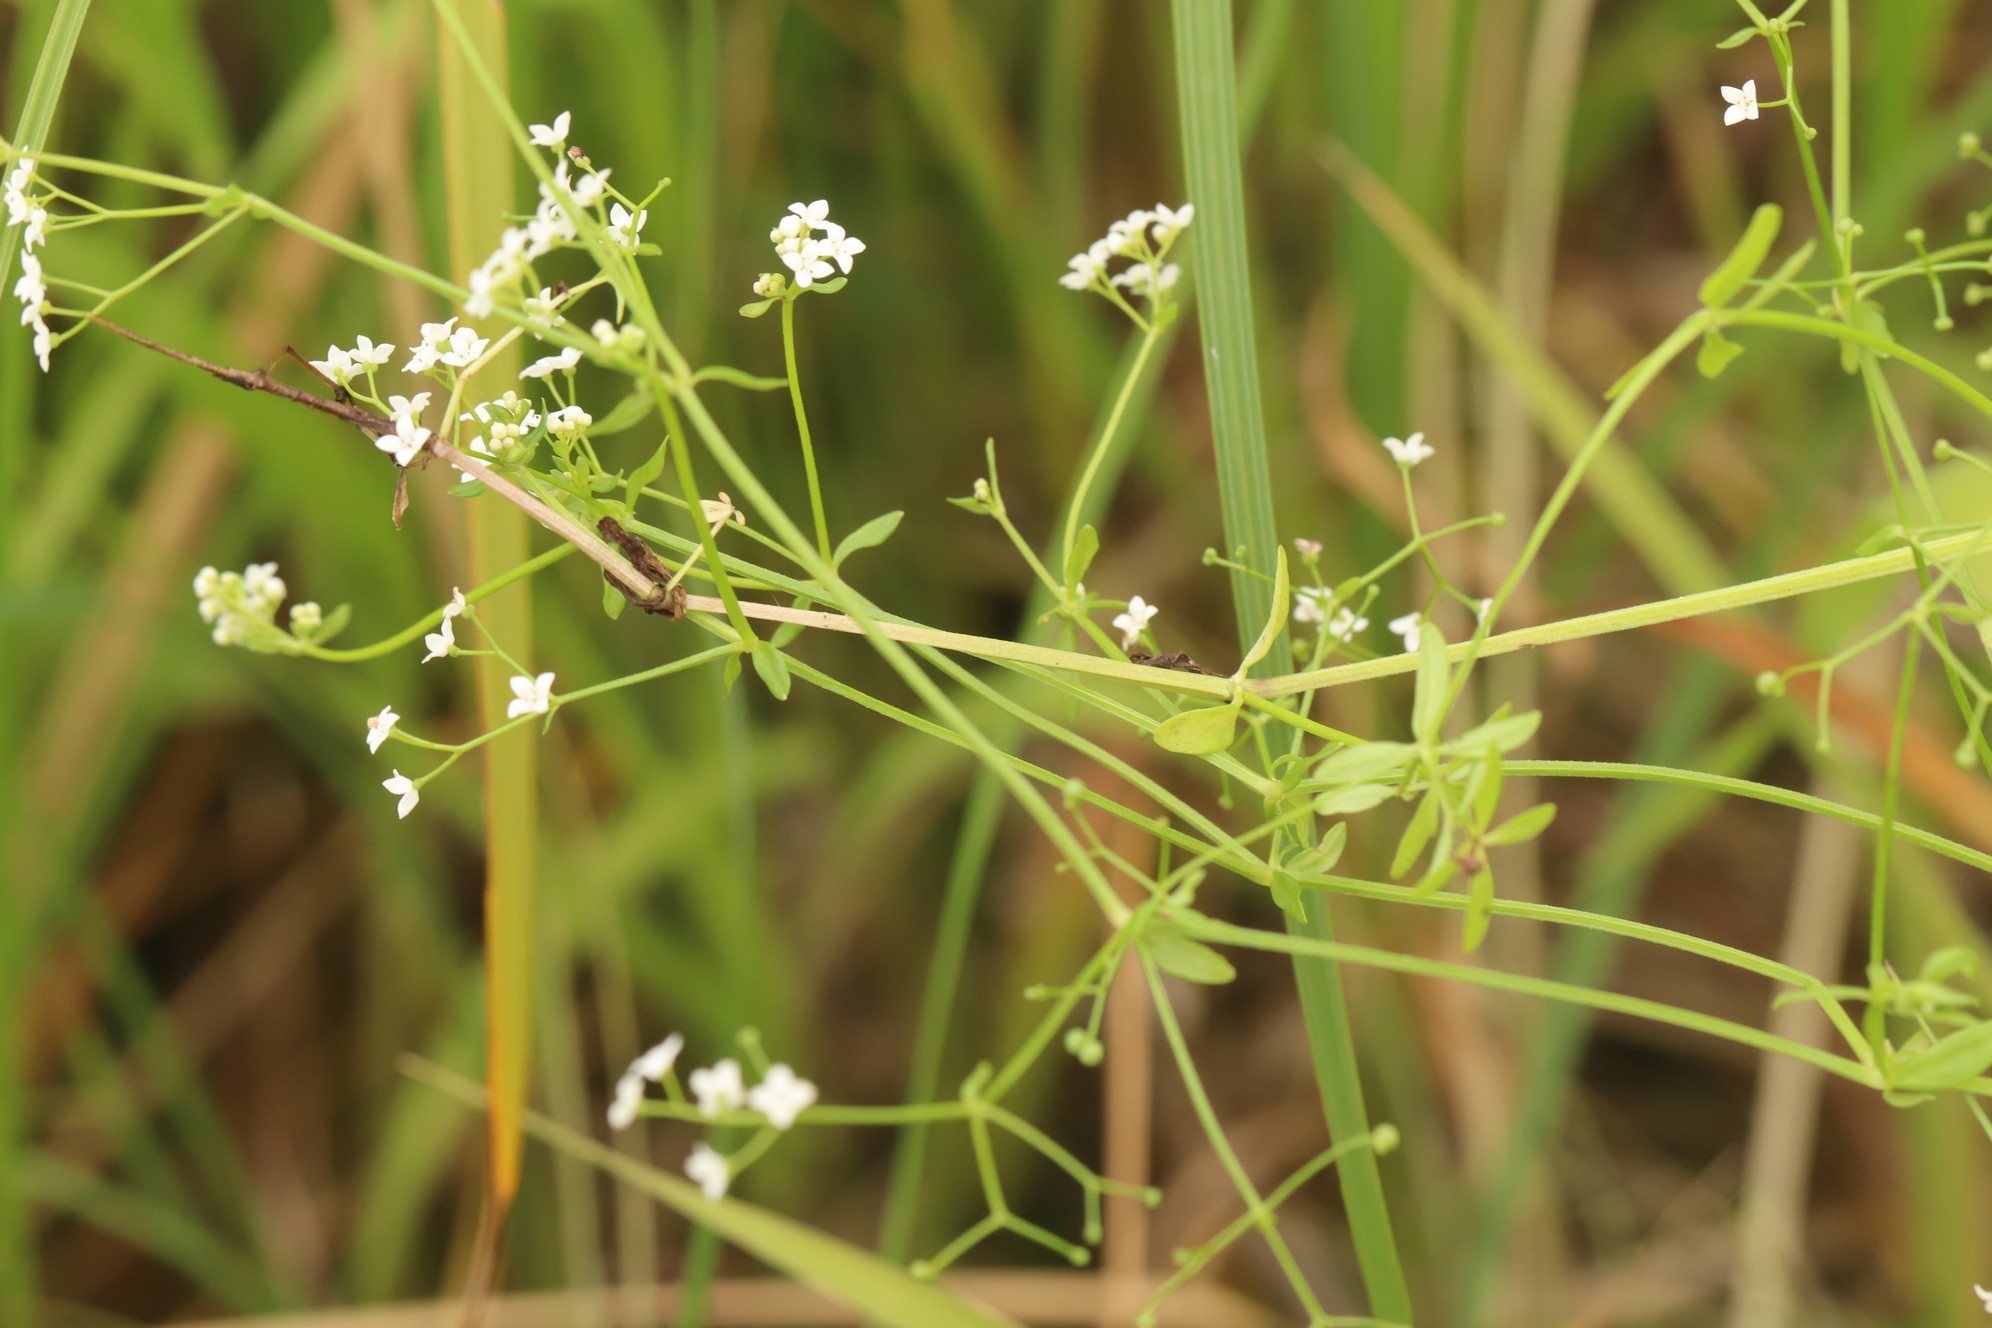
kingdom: Plantae
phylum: Tracheophyta
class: Magnoliopsida
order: Gentianales
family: Rubiaceae
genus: Galium
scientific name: Galium palustre
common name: Common marsh-bedstraw
